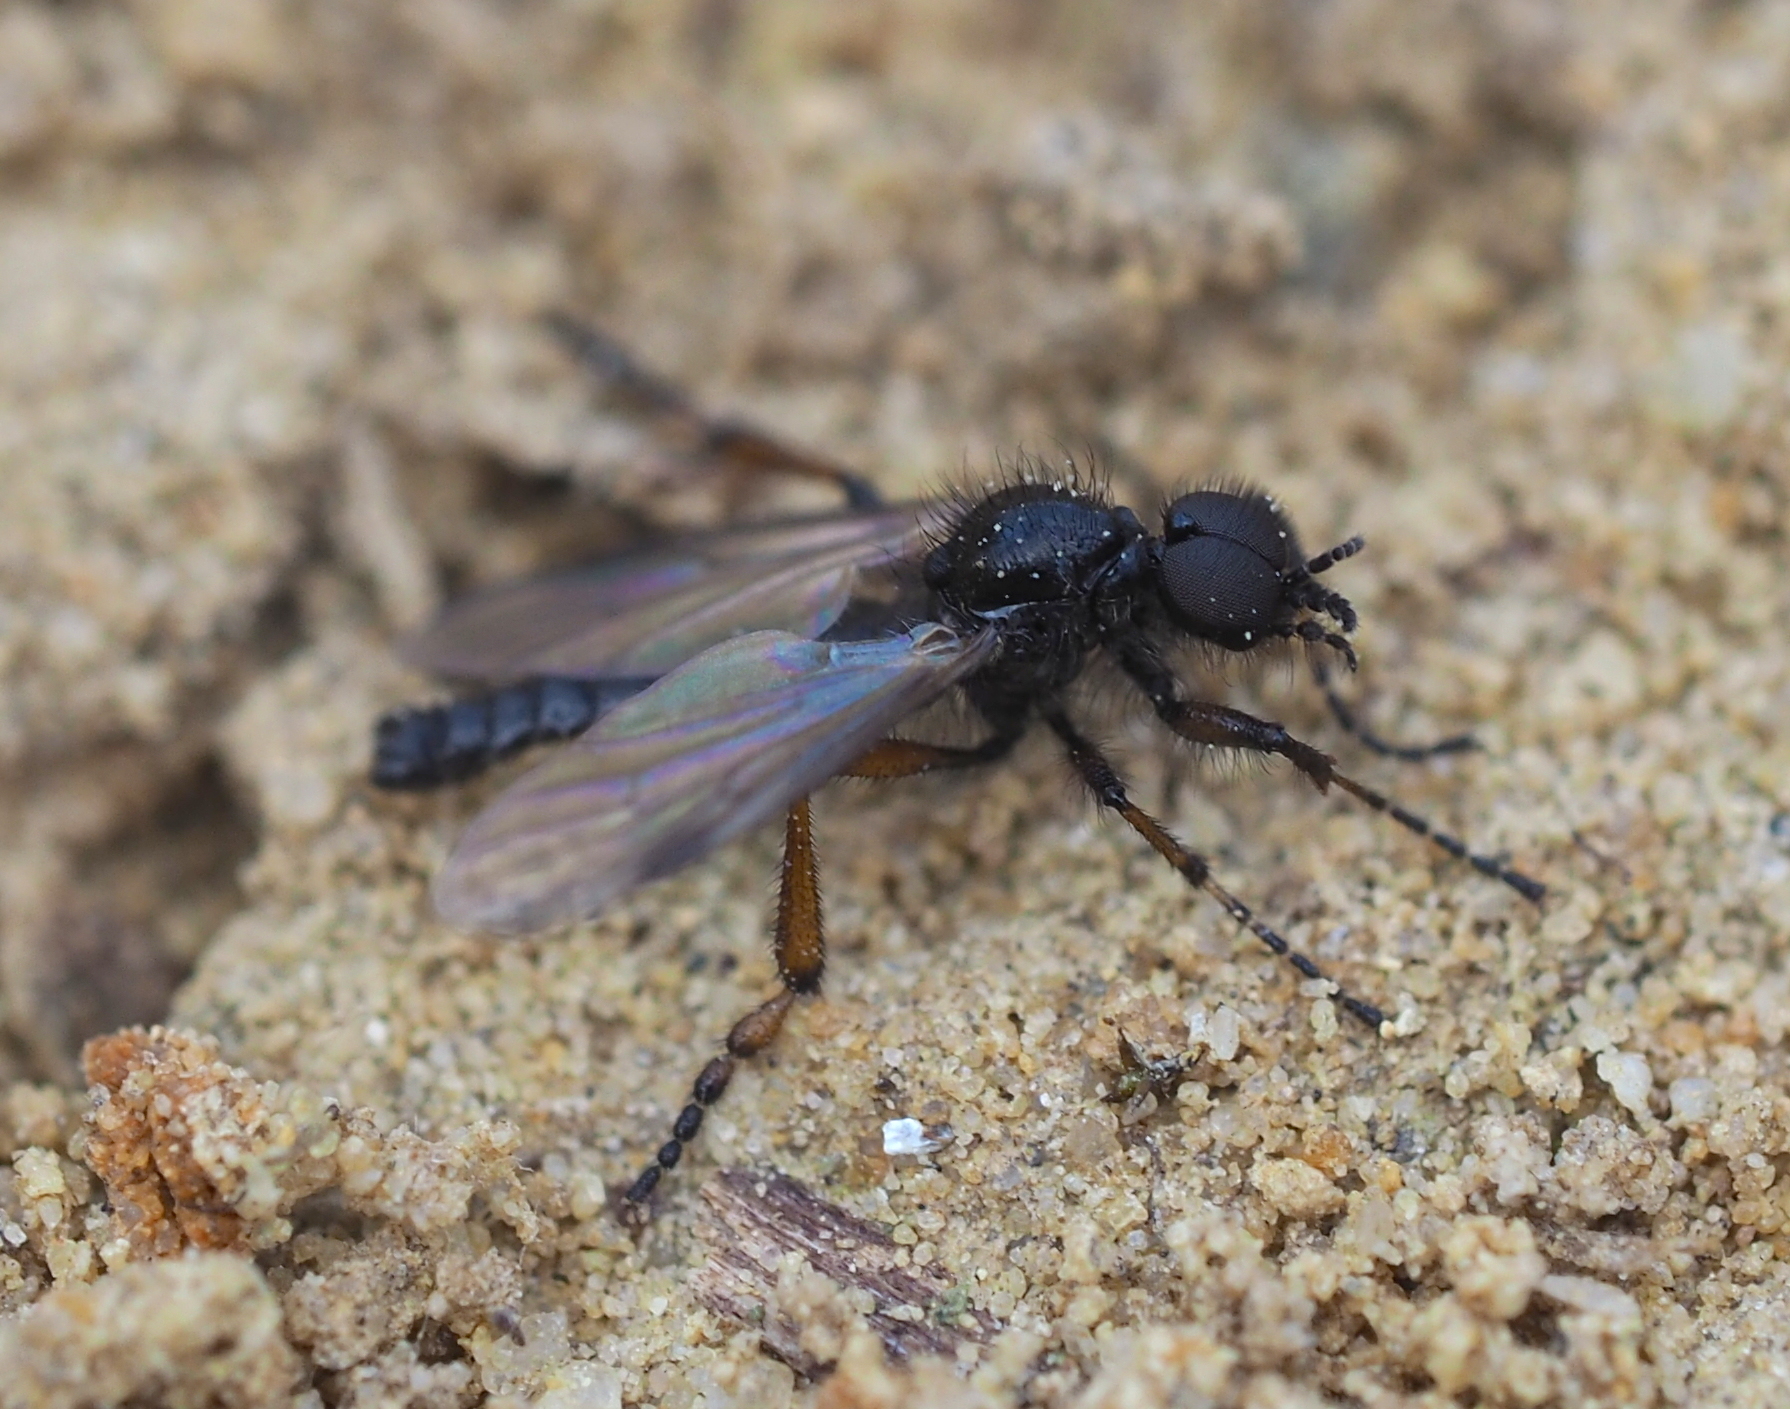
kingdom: Animalia
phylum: Arthropoda
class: Insecta
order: Diptera
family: Bibionidae
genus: Bibio
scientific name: Bibio femoralis
